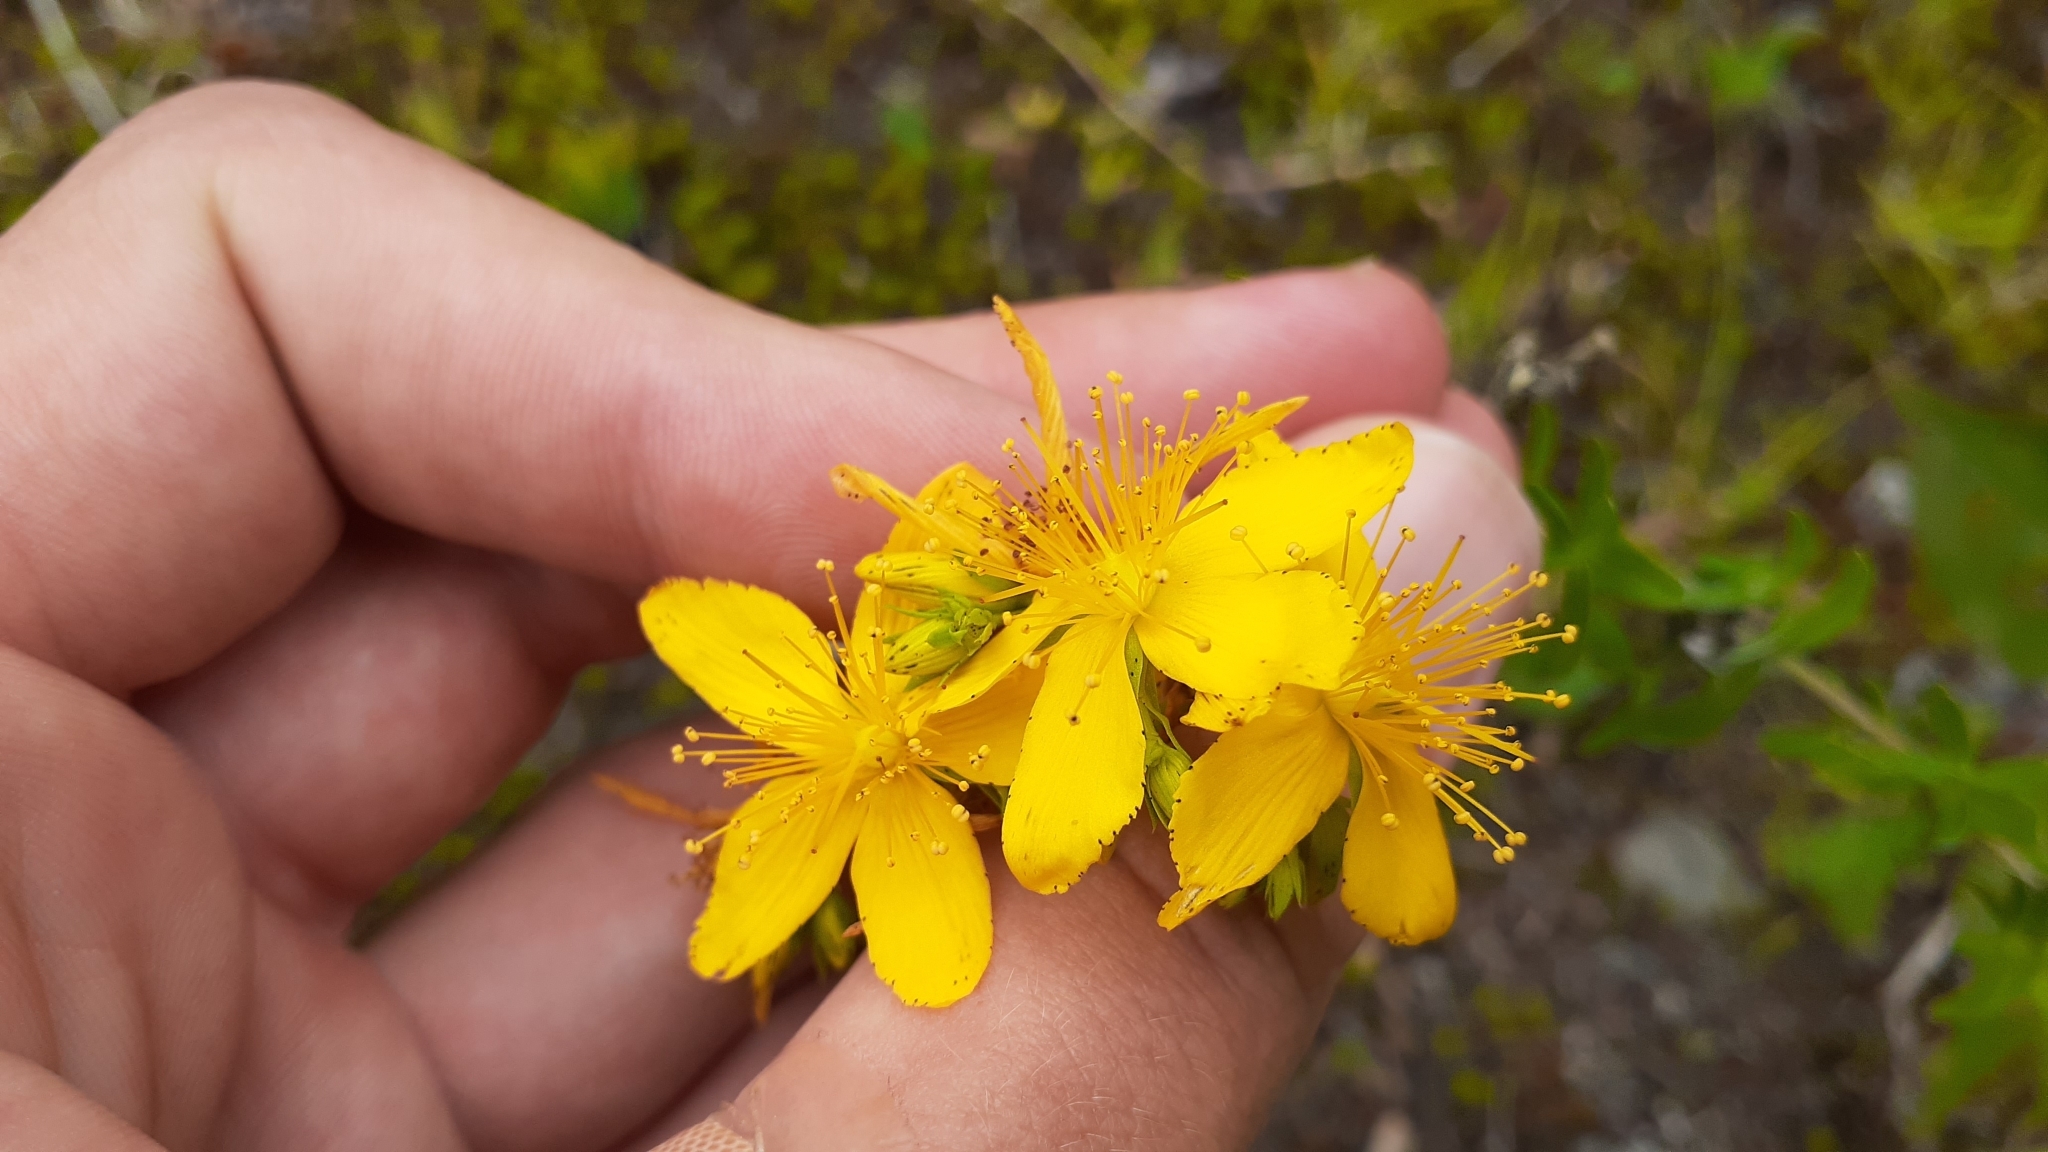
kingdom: Plantae
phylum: Tracheophyta
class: Magnoliopsida
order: Malpighiales
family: Hypericaceae
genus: Hypericum
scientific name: Hypericum perforatum
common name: Common st. johnswort
